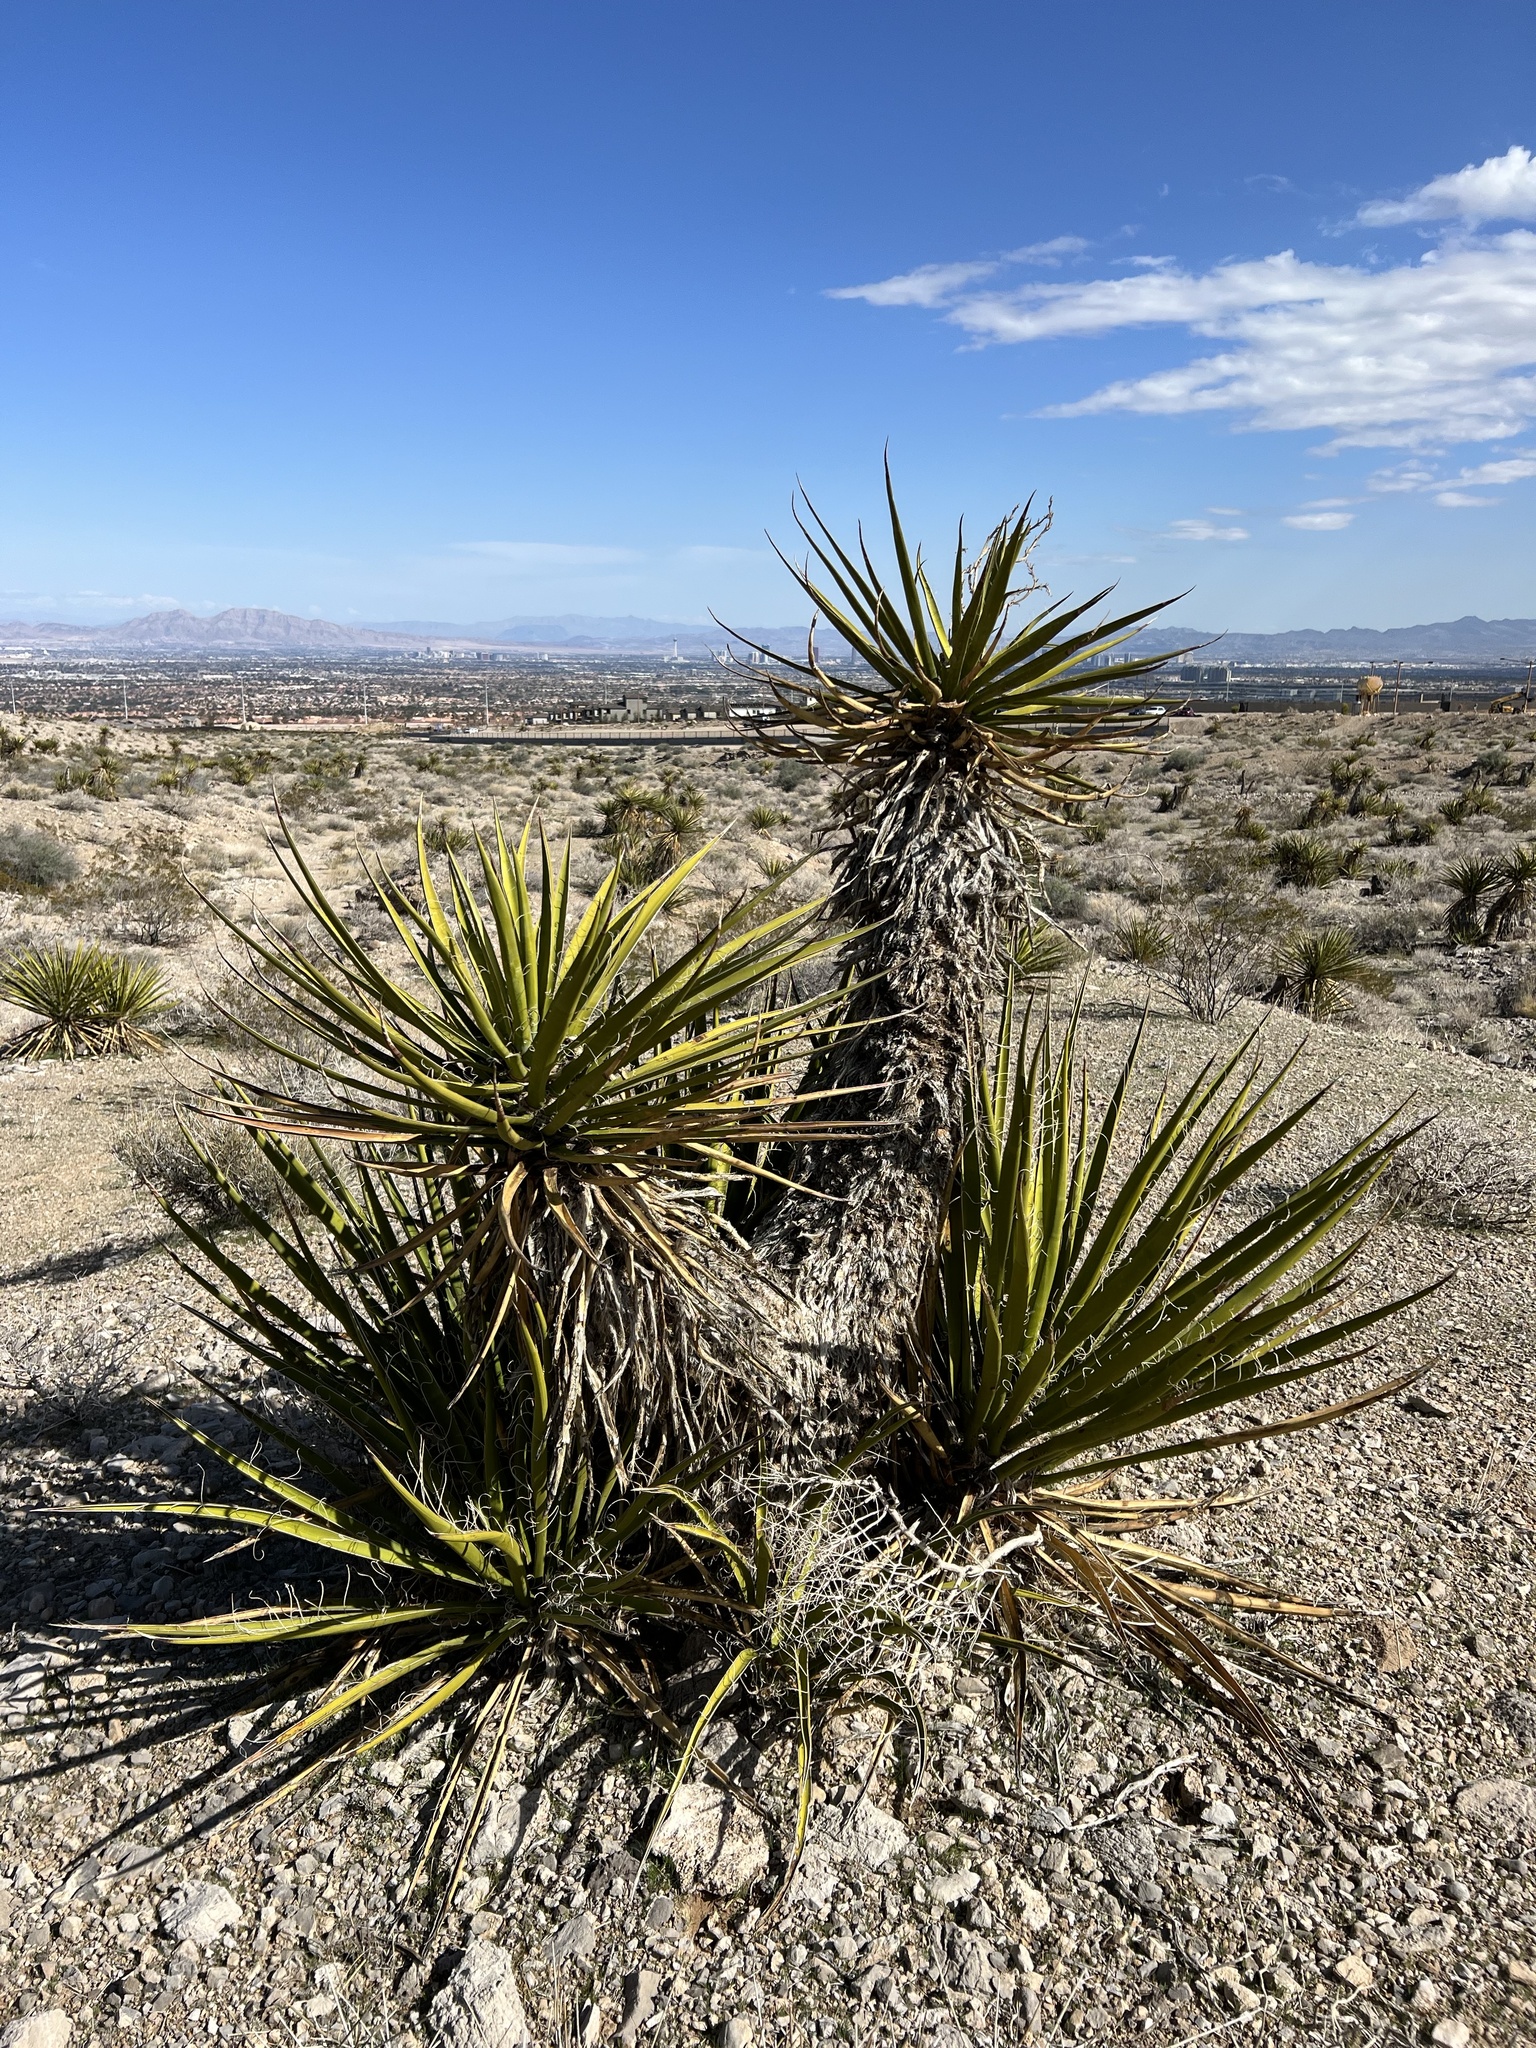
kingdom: Plantae
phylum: Tracheophyta
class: Liliopsida
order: Asparagales
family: Asparagaceae
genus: Yucca
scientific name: Yucca schidigera
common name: Mojave yucca
